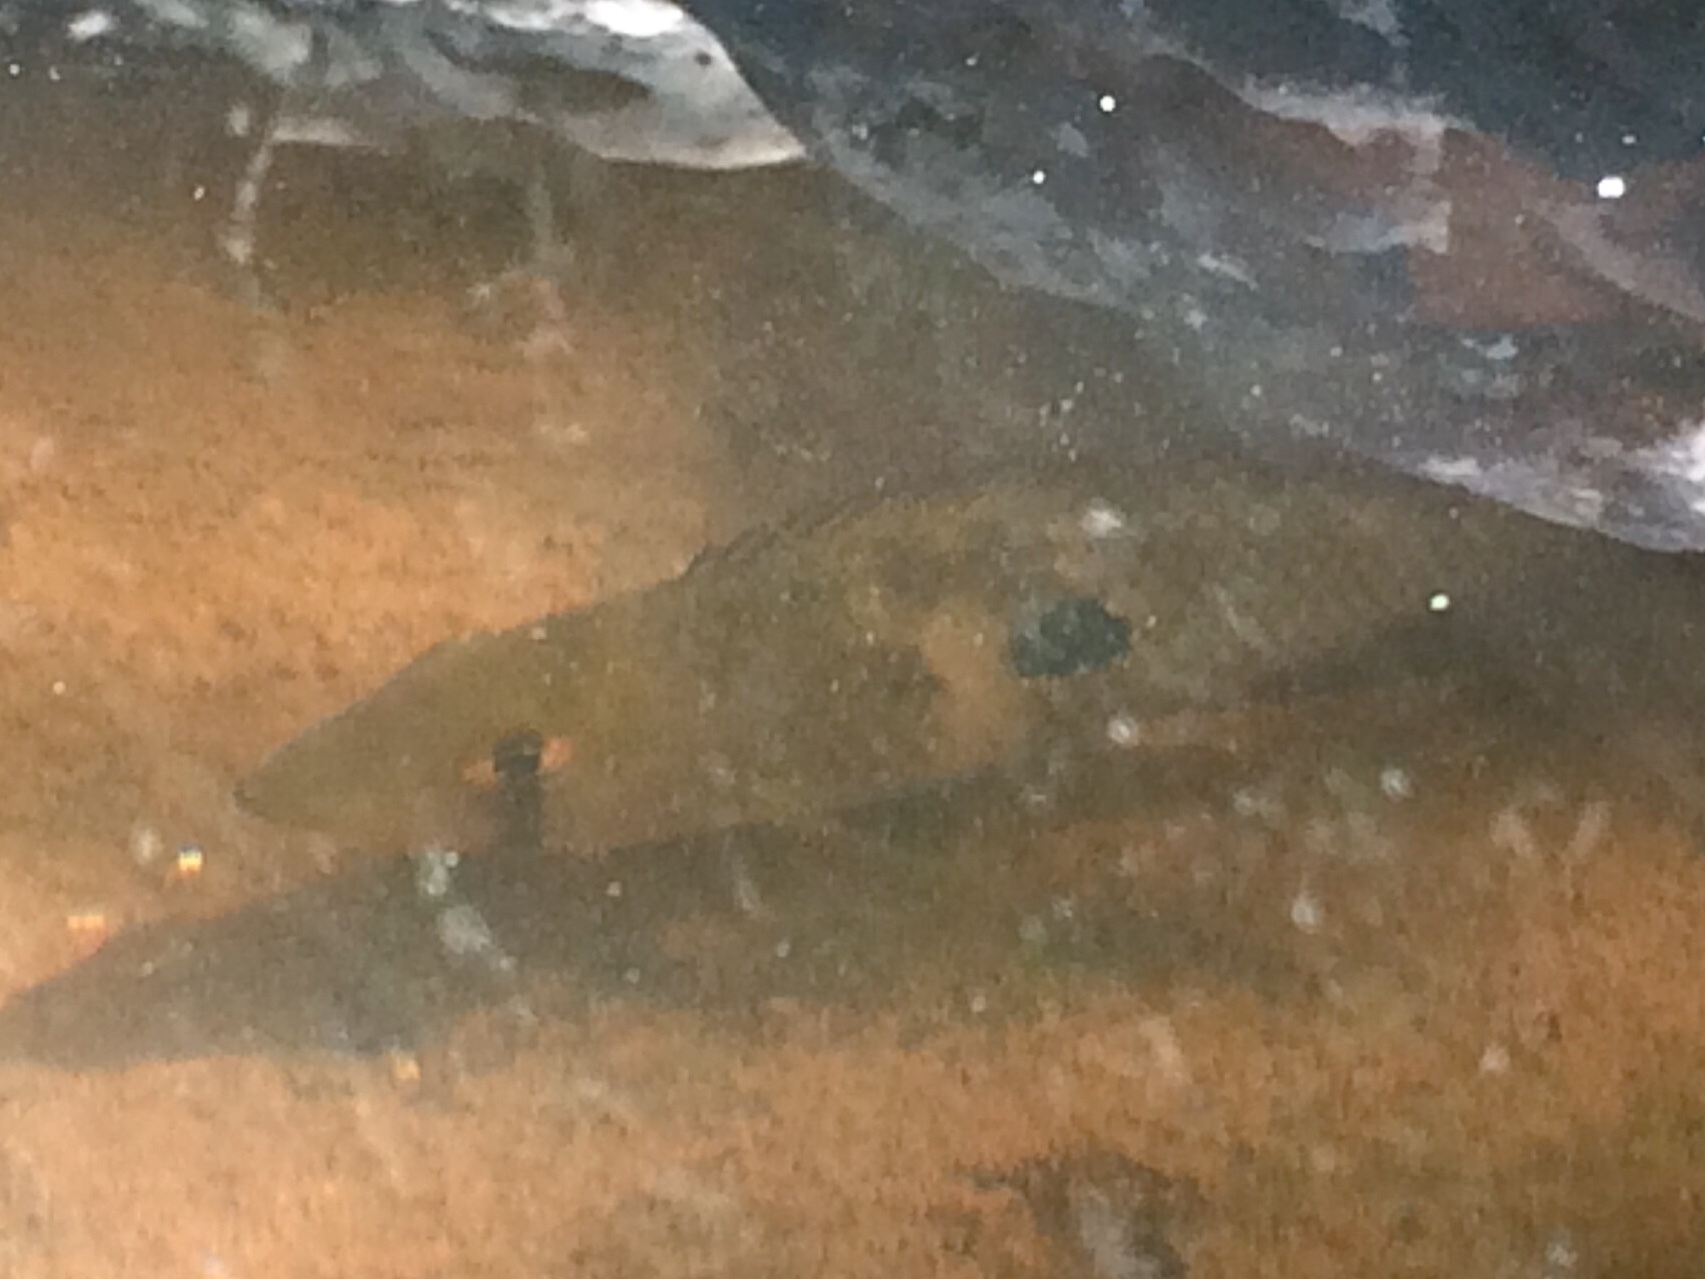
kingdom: Animalia
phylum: Chordata
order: Perciformes
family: Cichlidae
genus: Geophagus
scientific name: Geophagus brasiliensis
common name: Braziliensis
